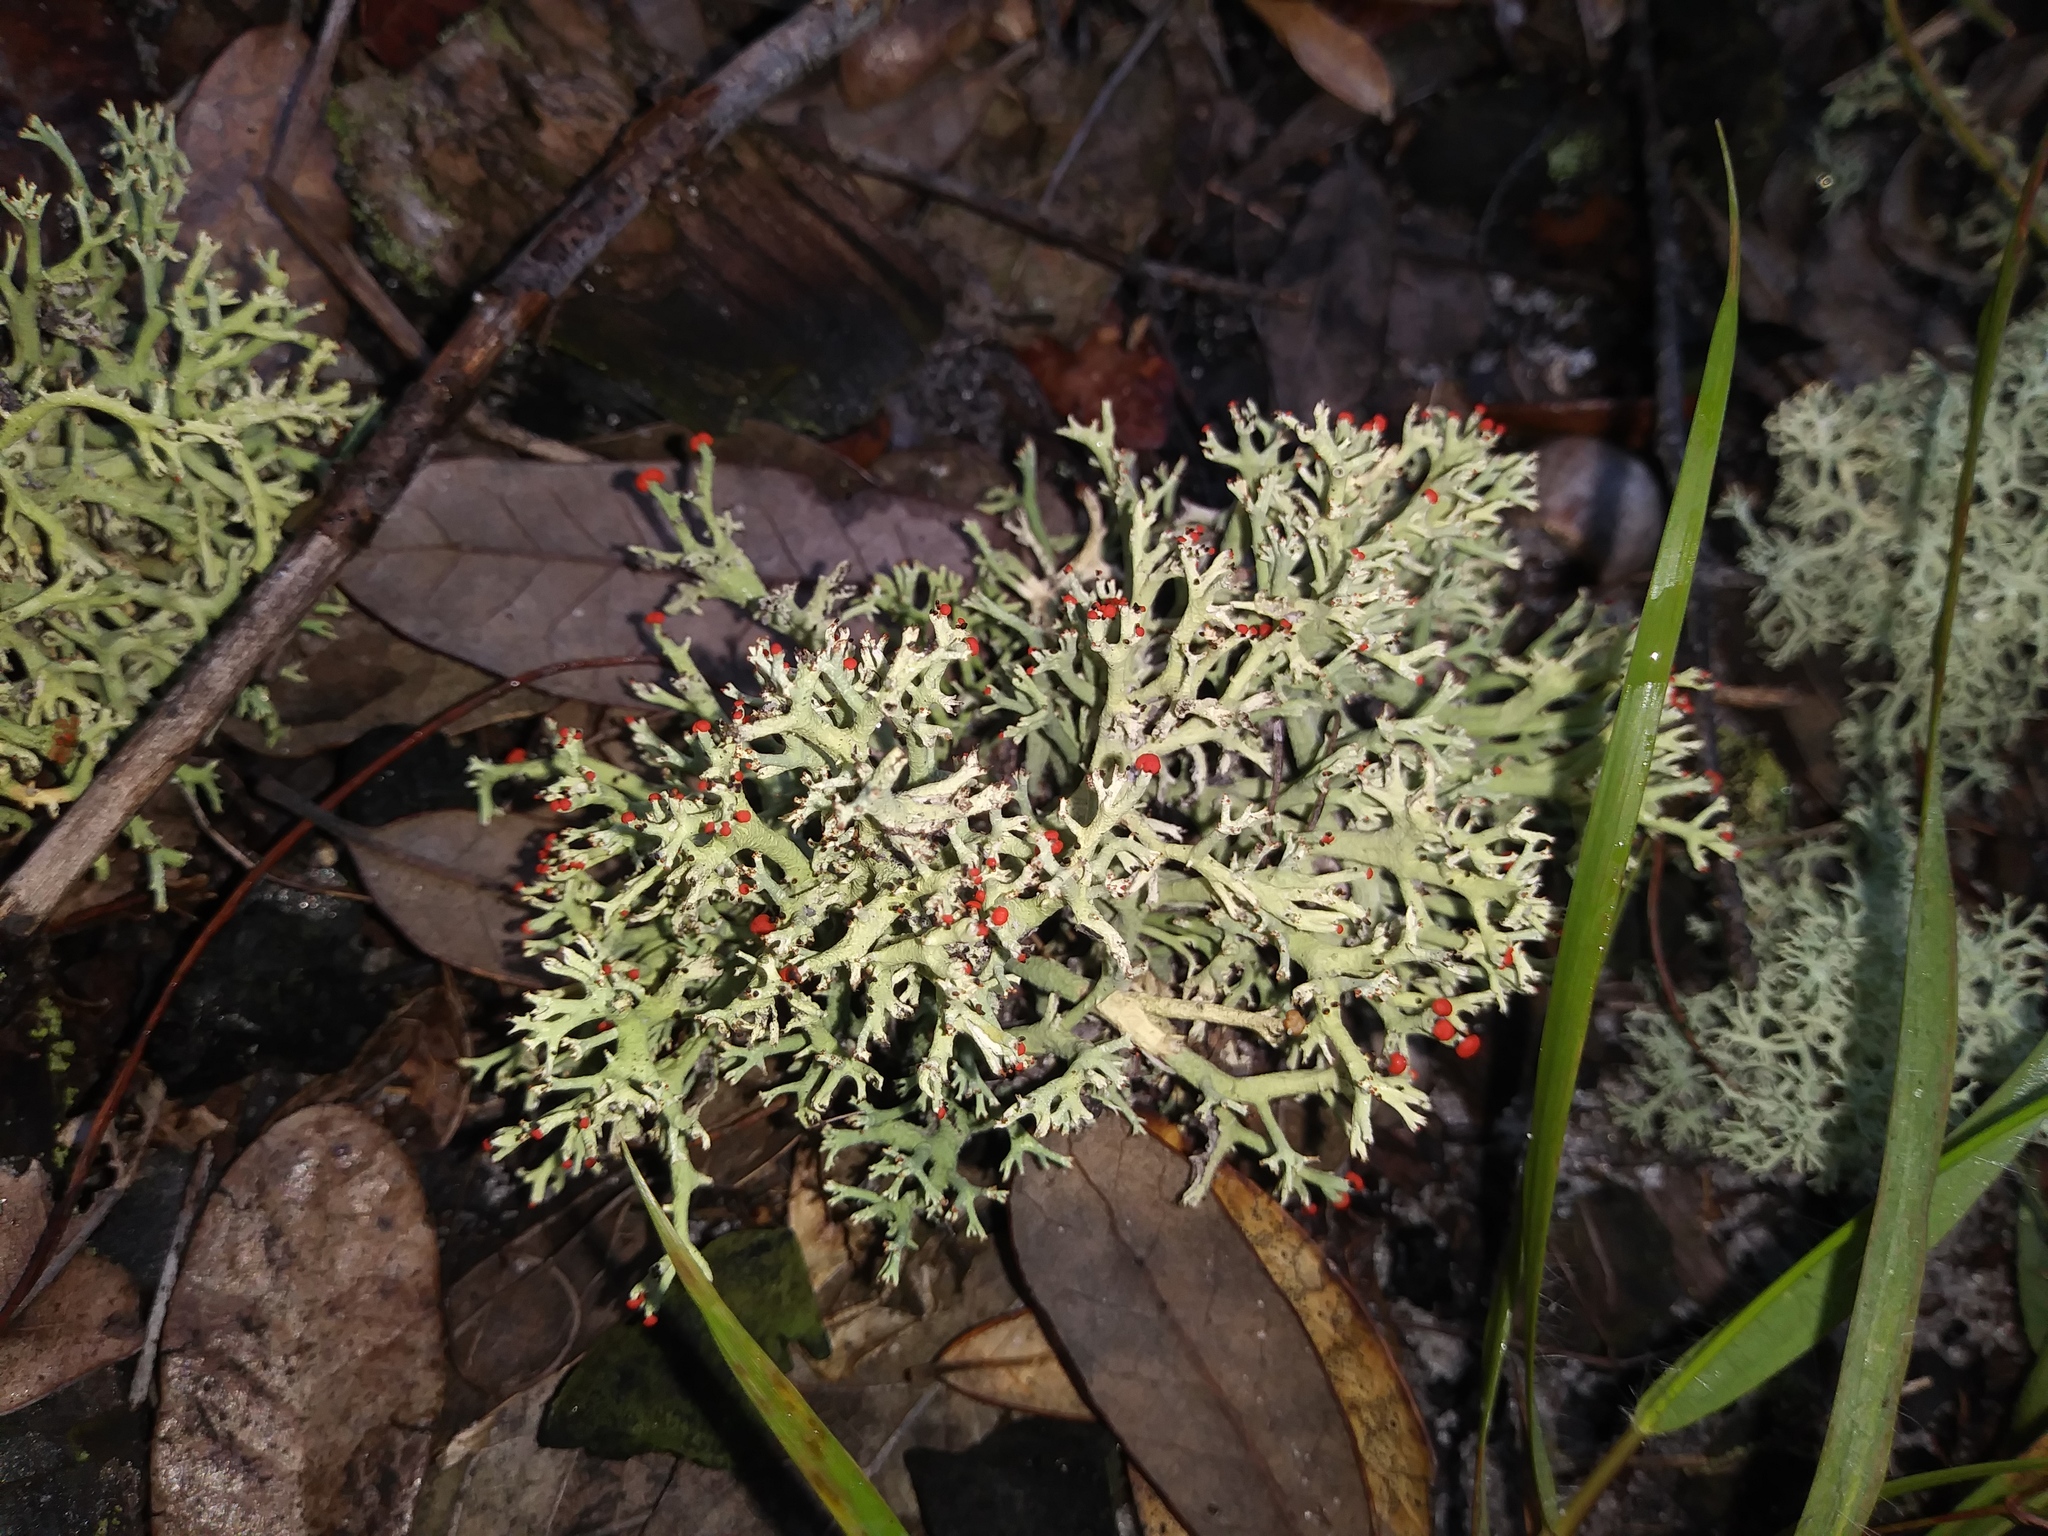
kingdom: Fungi
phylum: Ascomycota
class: Lecanoromycetes
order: Lecanorales
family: Cladoniaceae
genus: Cladonia
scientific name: Cladonia leporina
